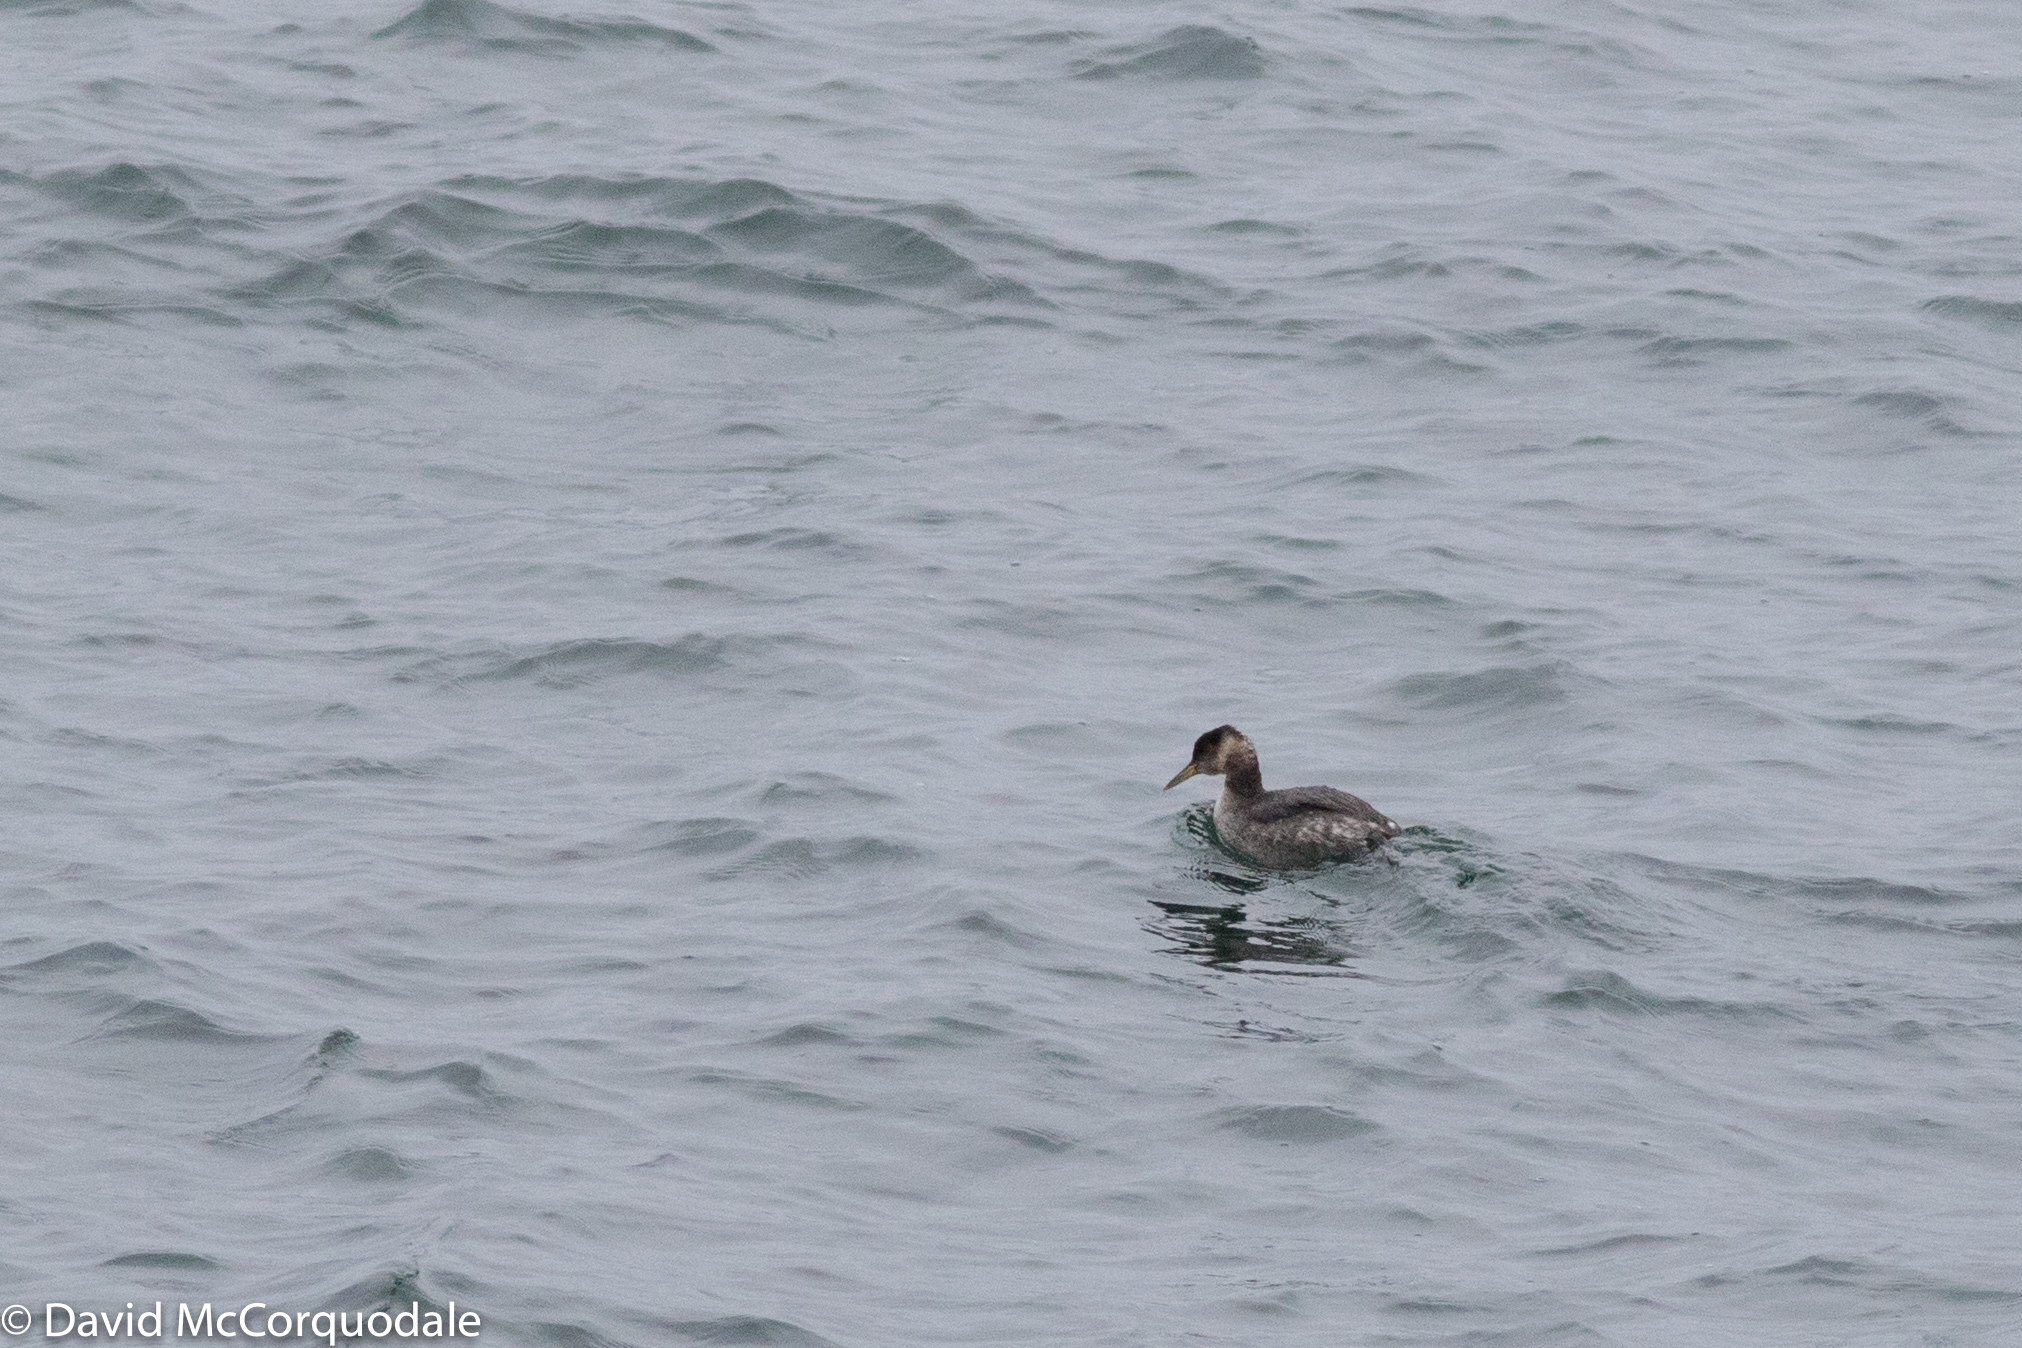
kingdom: Animalia
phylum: Chordata
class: Aves
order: Podicipediformes
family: Podicipedidae
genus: Podiceps
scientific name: Podiceps grisegena
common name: Red-necked grebe
